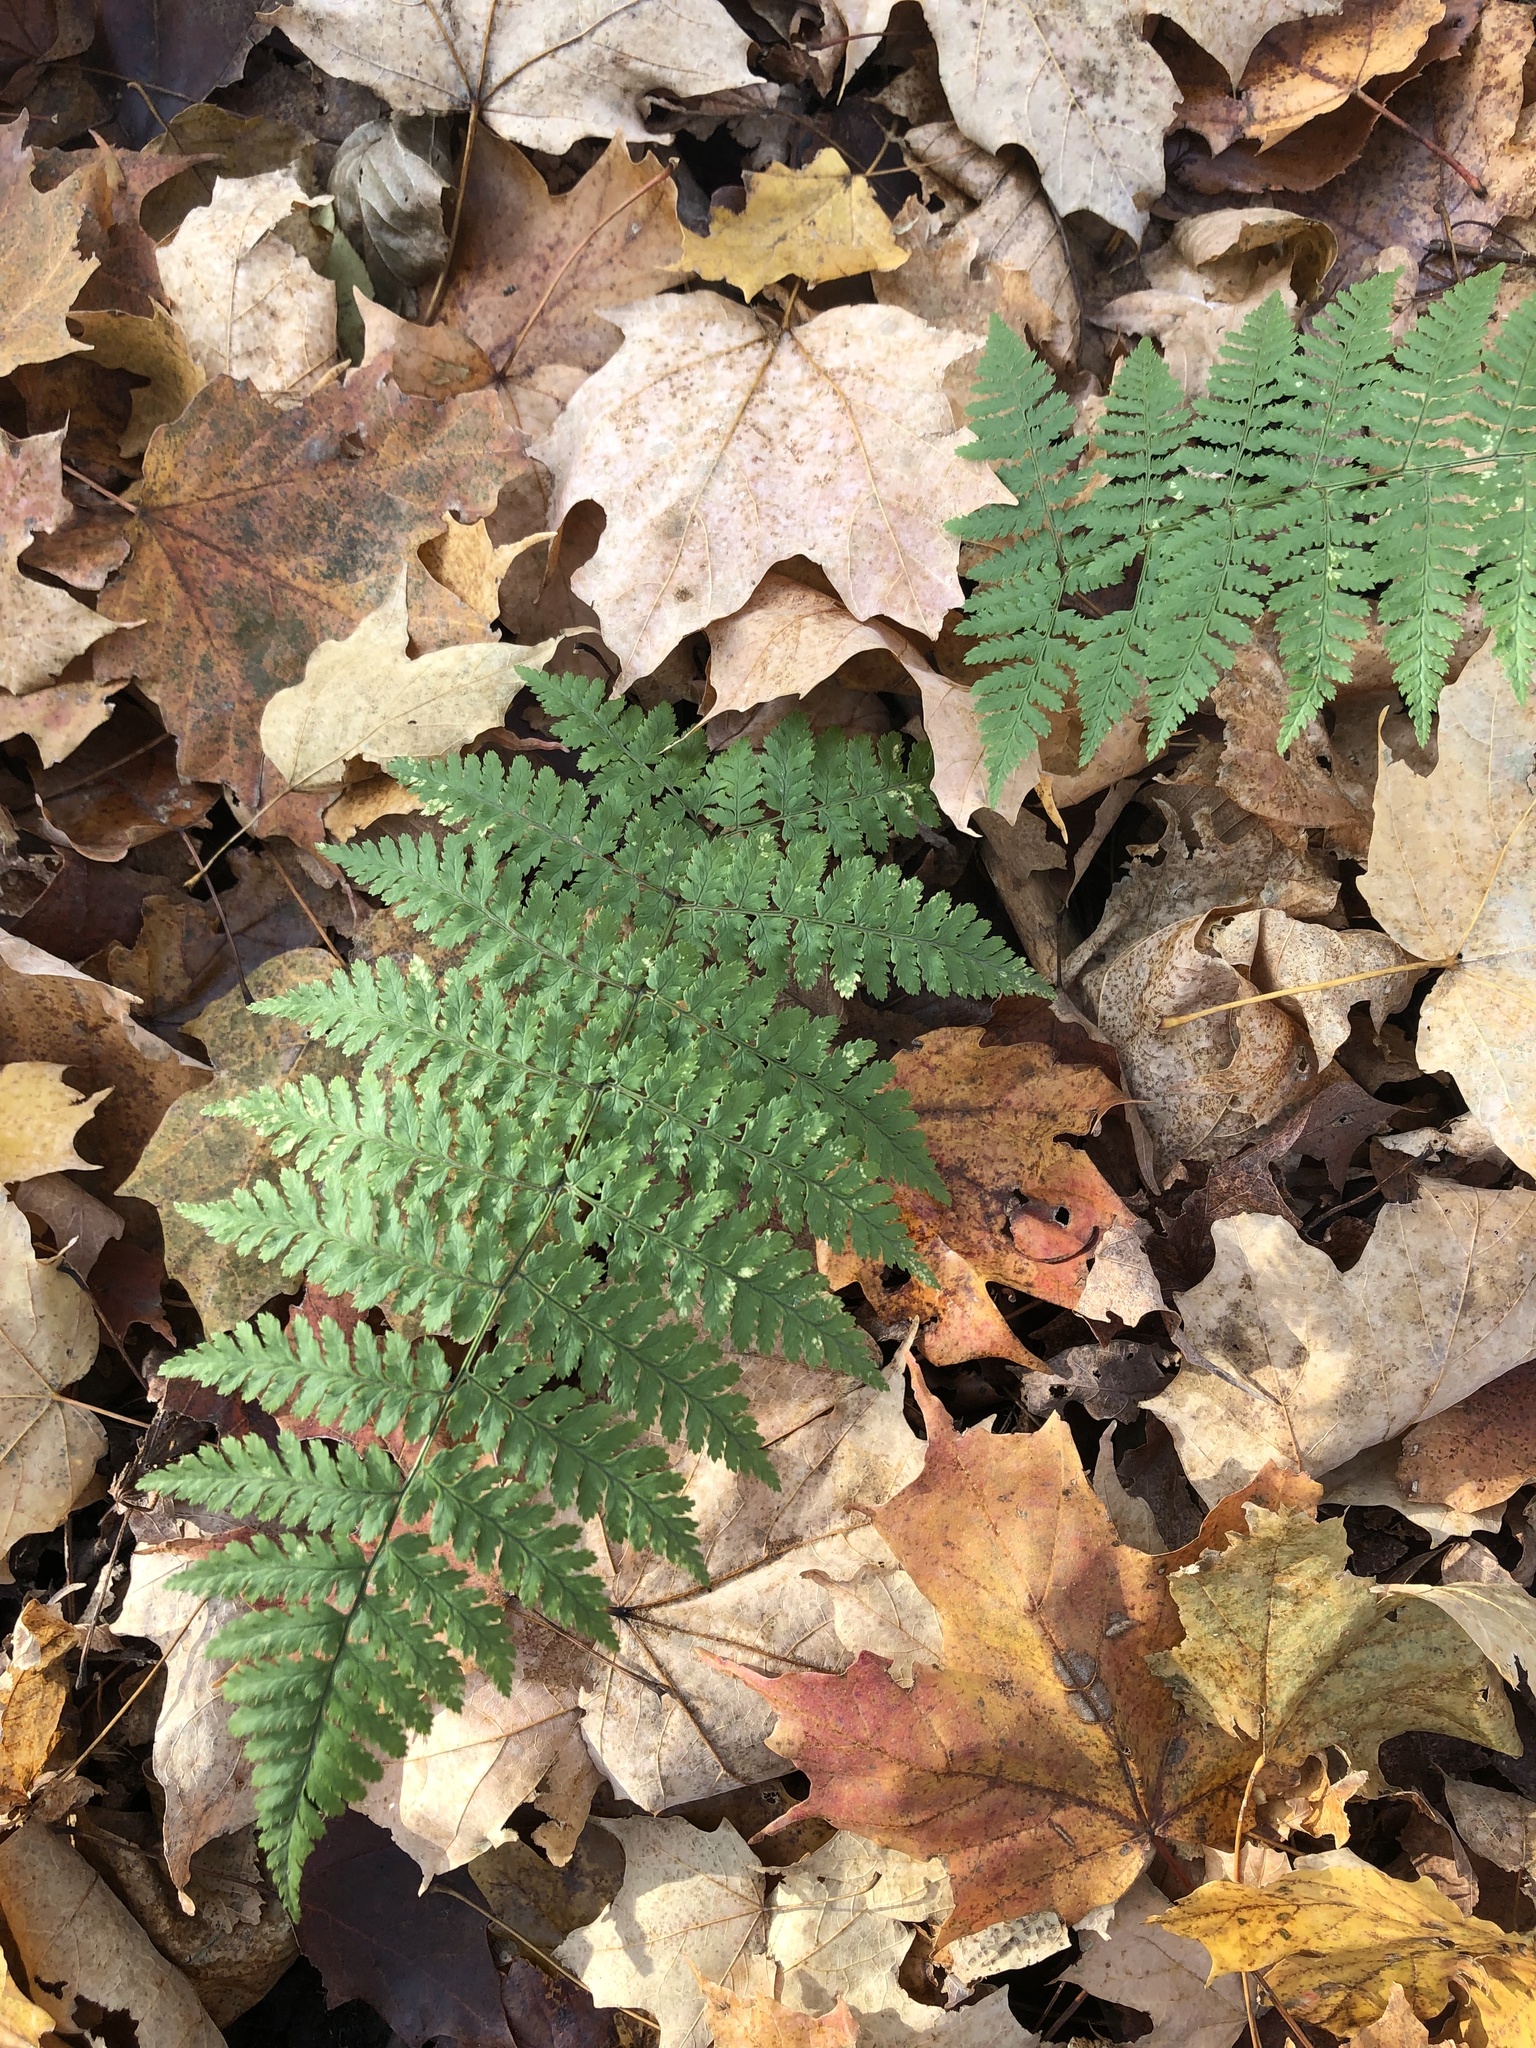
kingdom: Plantae
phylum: Tracheophyta
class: Polypodiopsida
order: Polypodiales
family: Dryopteridaceae
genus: Dryopteris
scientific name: Dryopteris intermedia
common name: Evergreen wood fern
